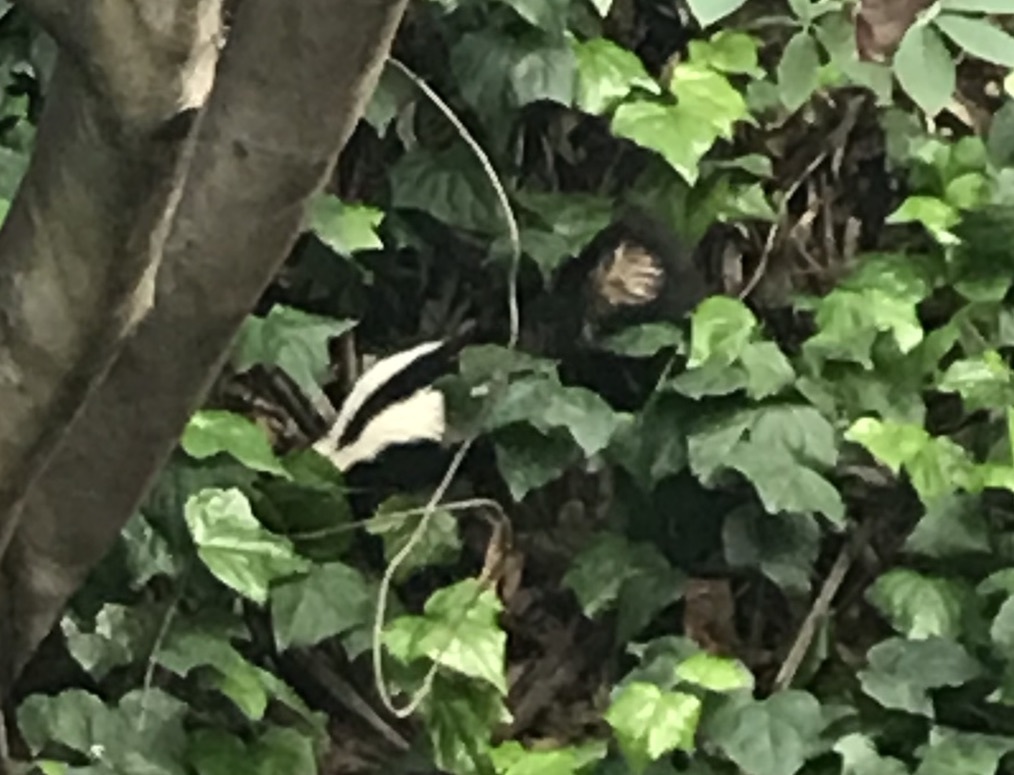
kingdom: Animalia
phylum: Chordata
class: Mammalia
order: Carnivora
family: Mephitidae
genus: Mephitis
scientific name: Mephitis mephitis
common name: Striped skunk
